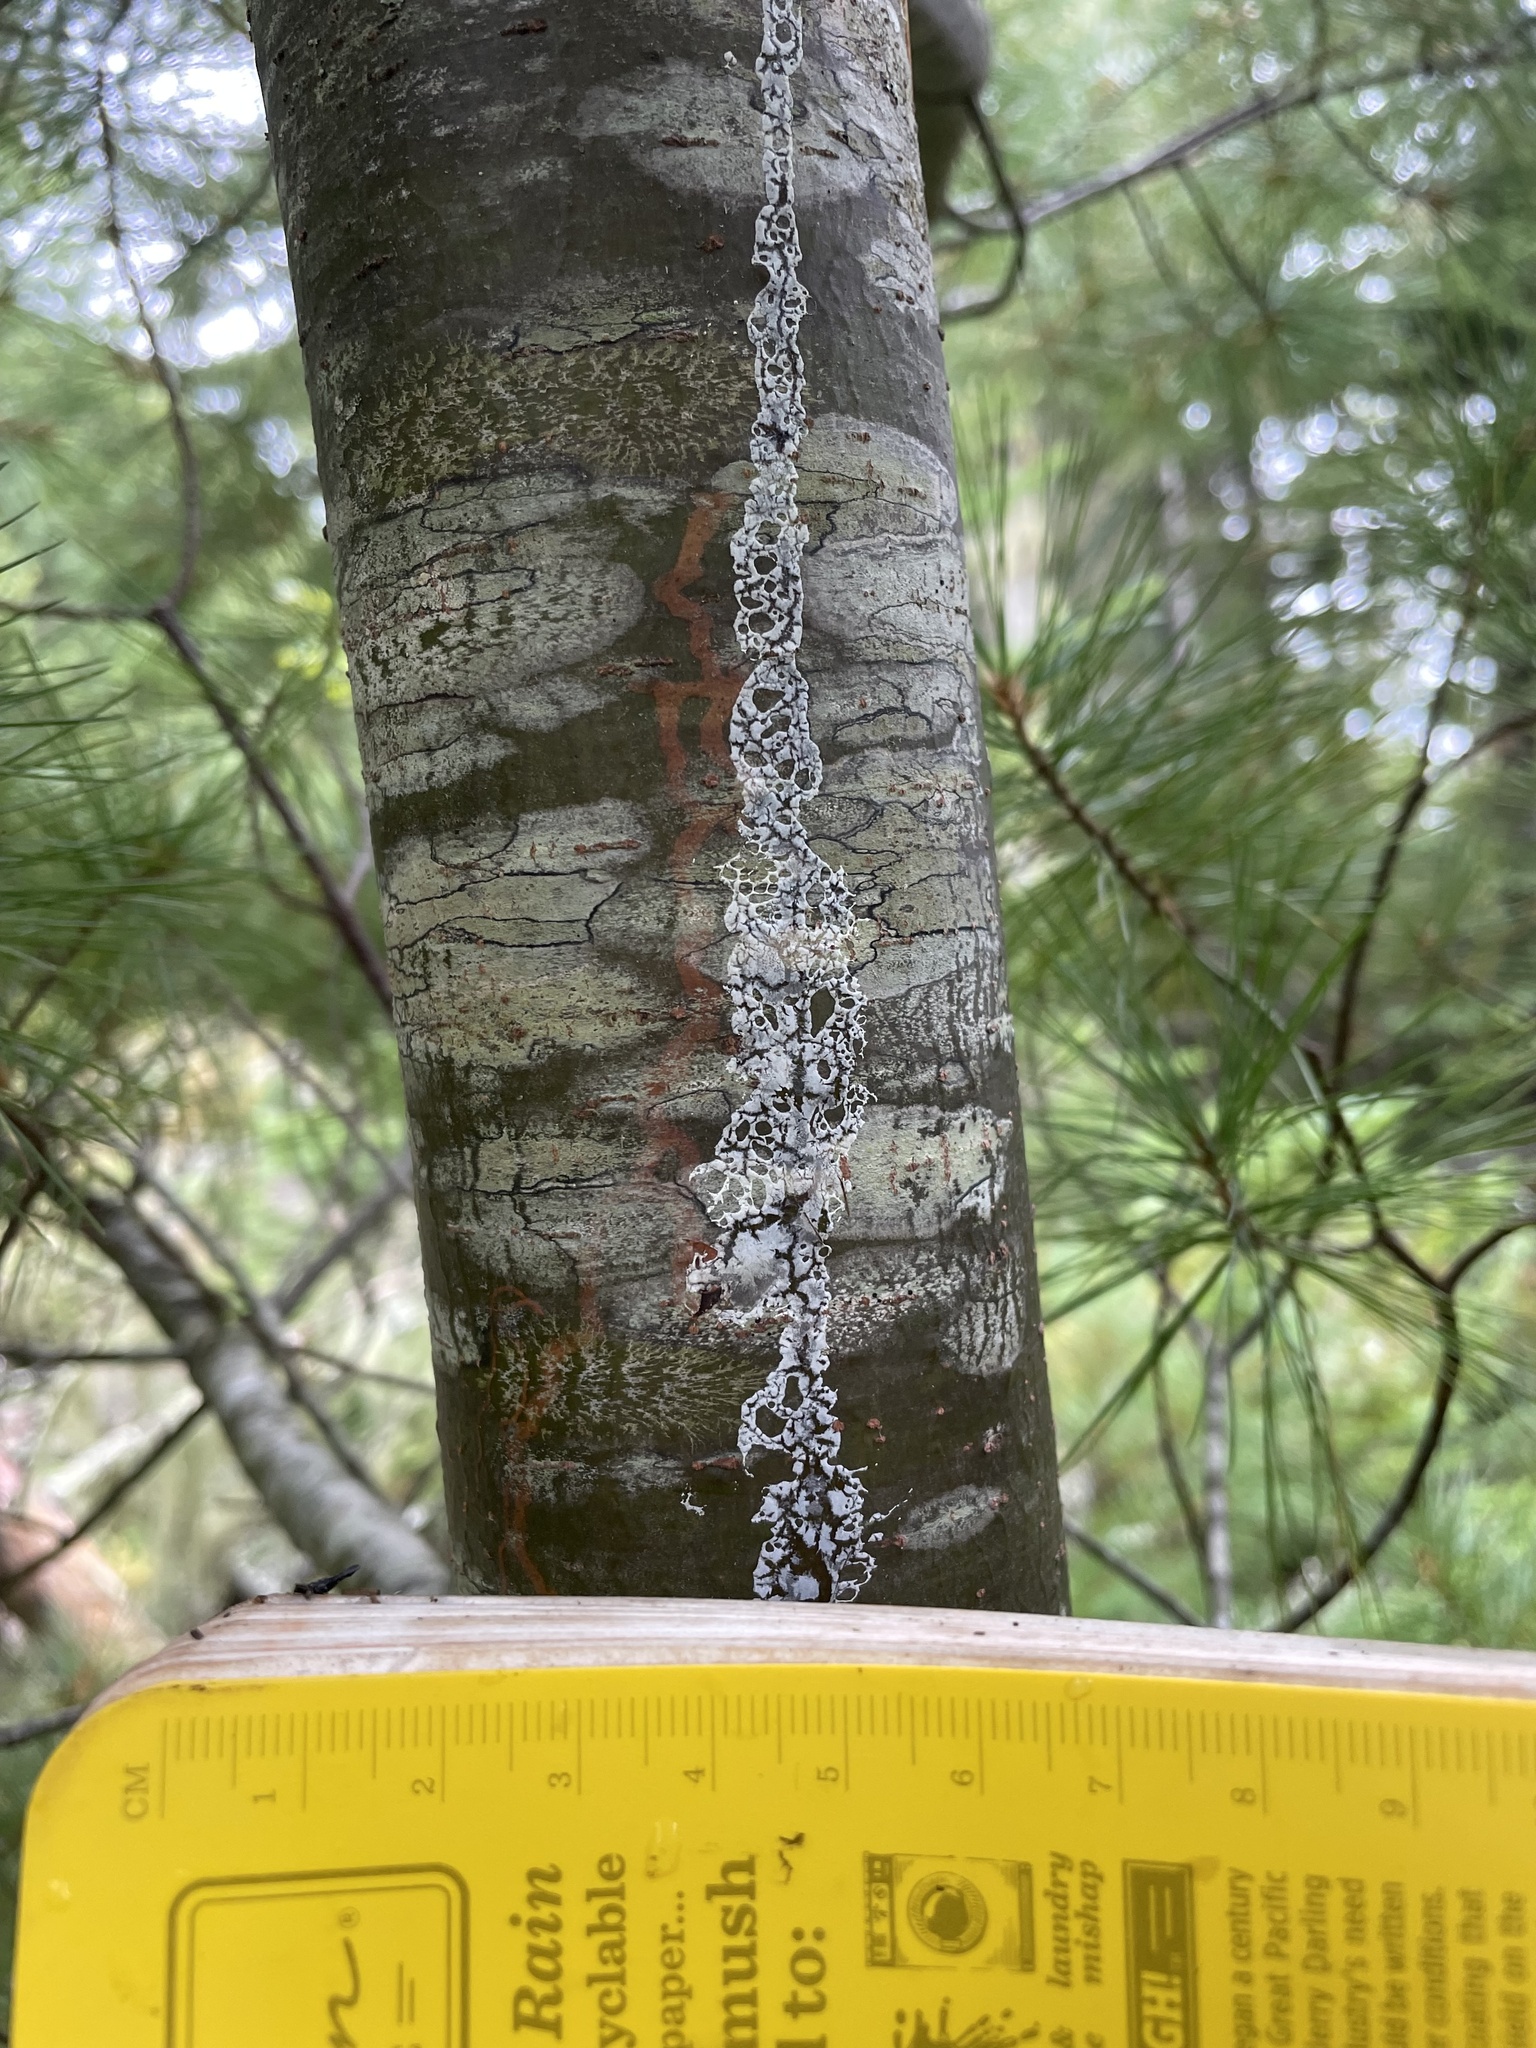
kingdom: Animalia
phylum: Arthropoda
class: Insecta
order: Lepidoptera
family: Gracillariidae
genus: Marmara
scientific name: Marmara fasciella
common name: White pine barkminer moth
